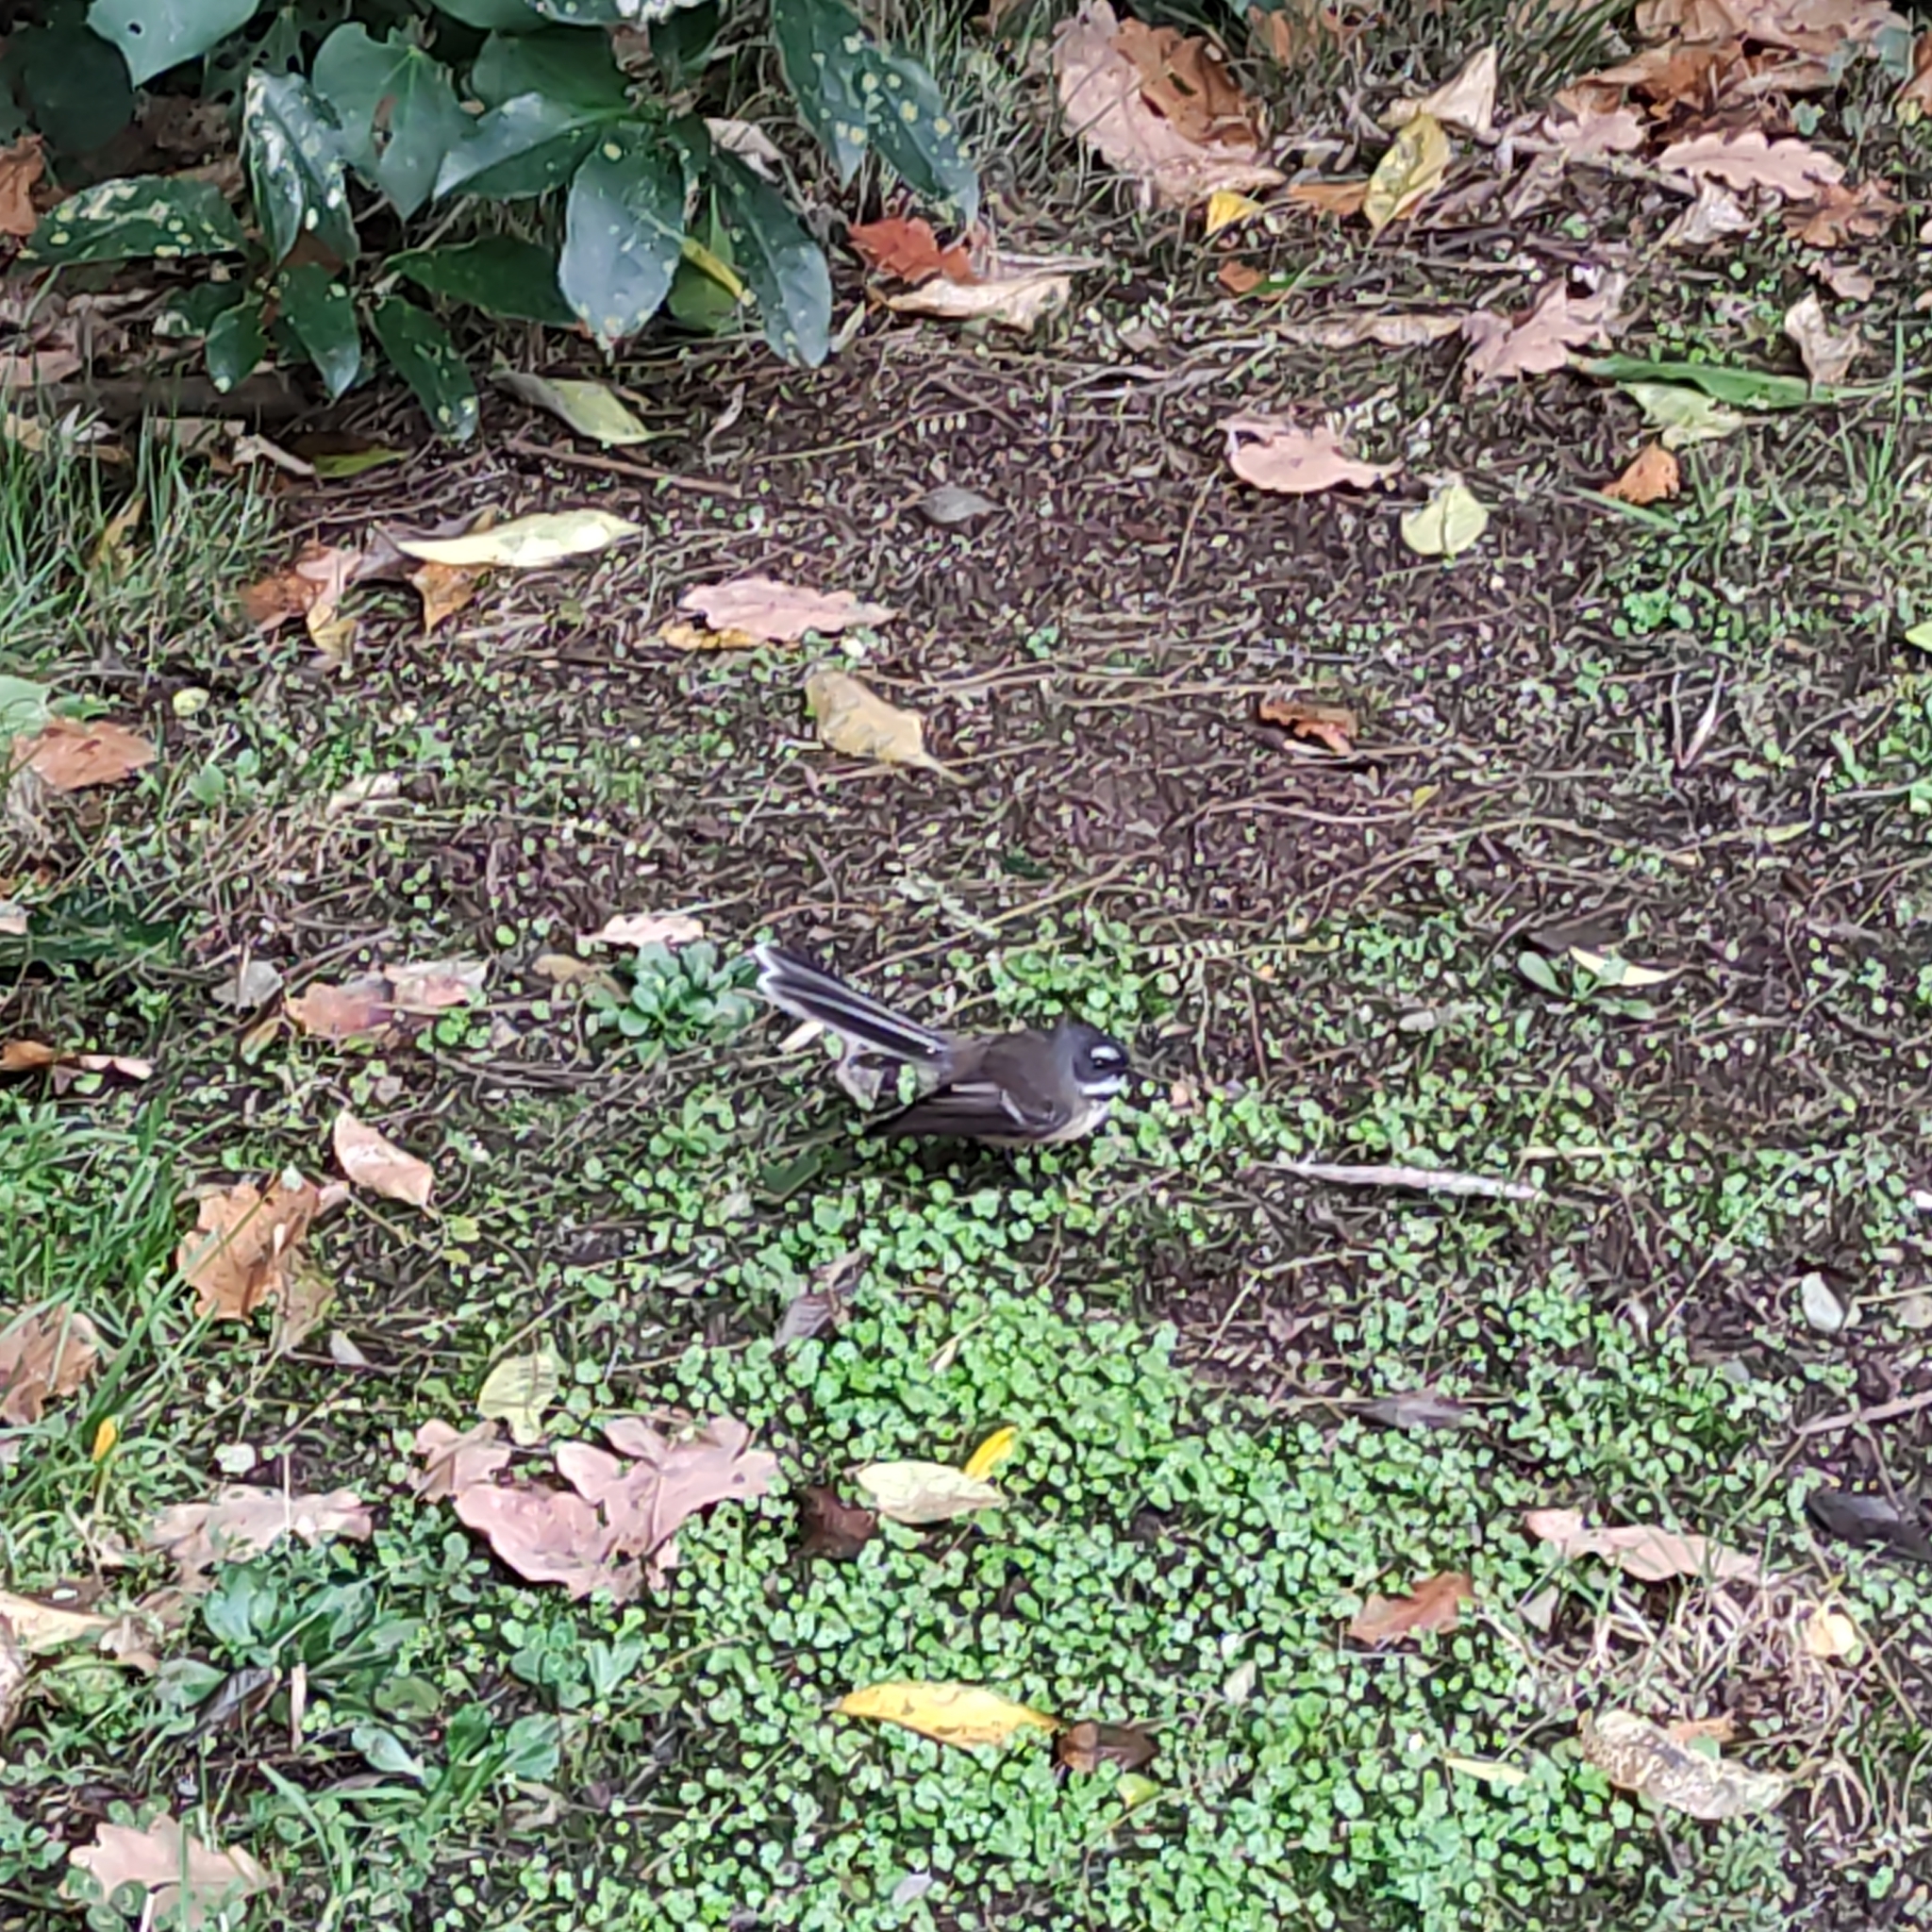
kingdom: Animalia
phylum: Chordata
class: Aves
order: Passeriformes
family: Rhipiduridae
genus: Rhipidura
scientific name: Rhipidura fuliginosa
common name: New zealand fantail
